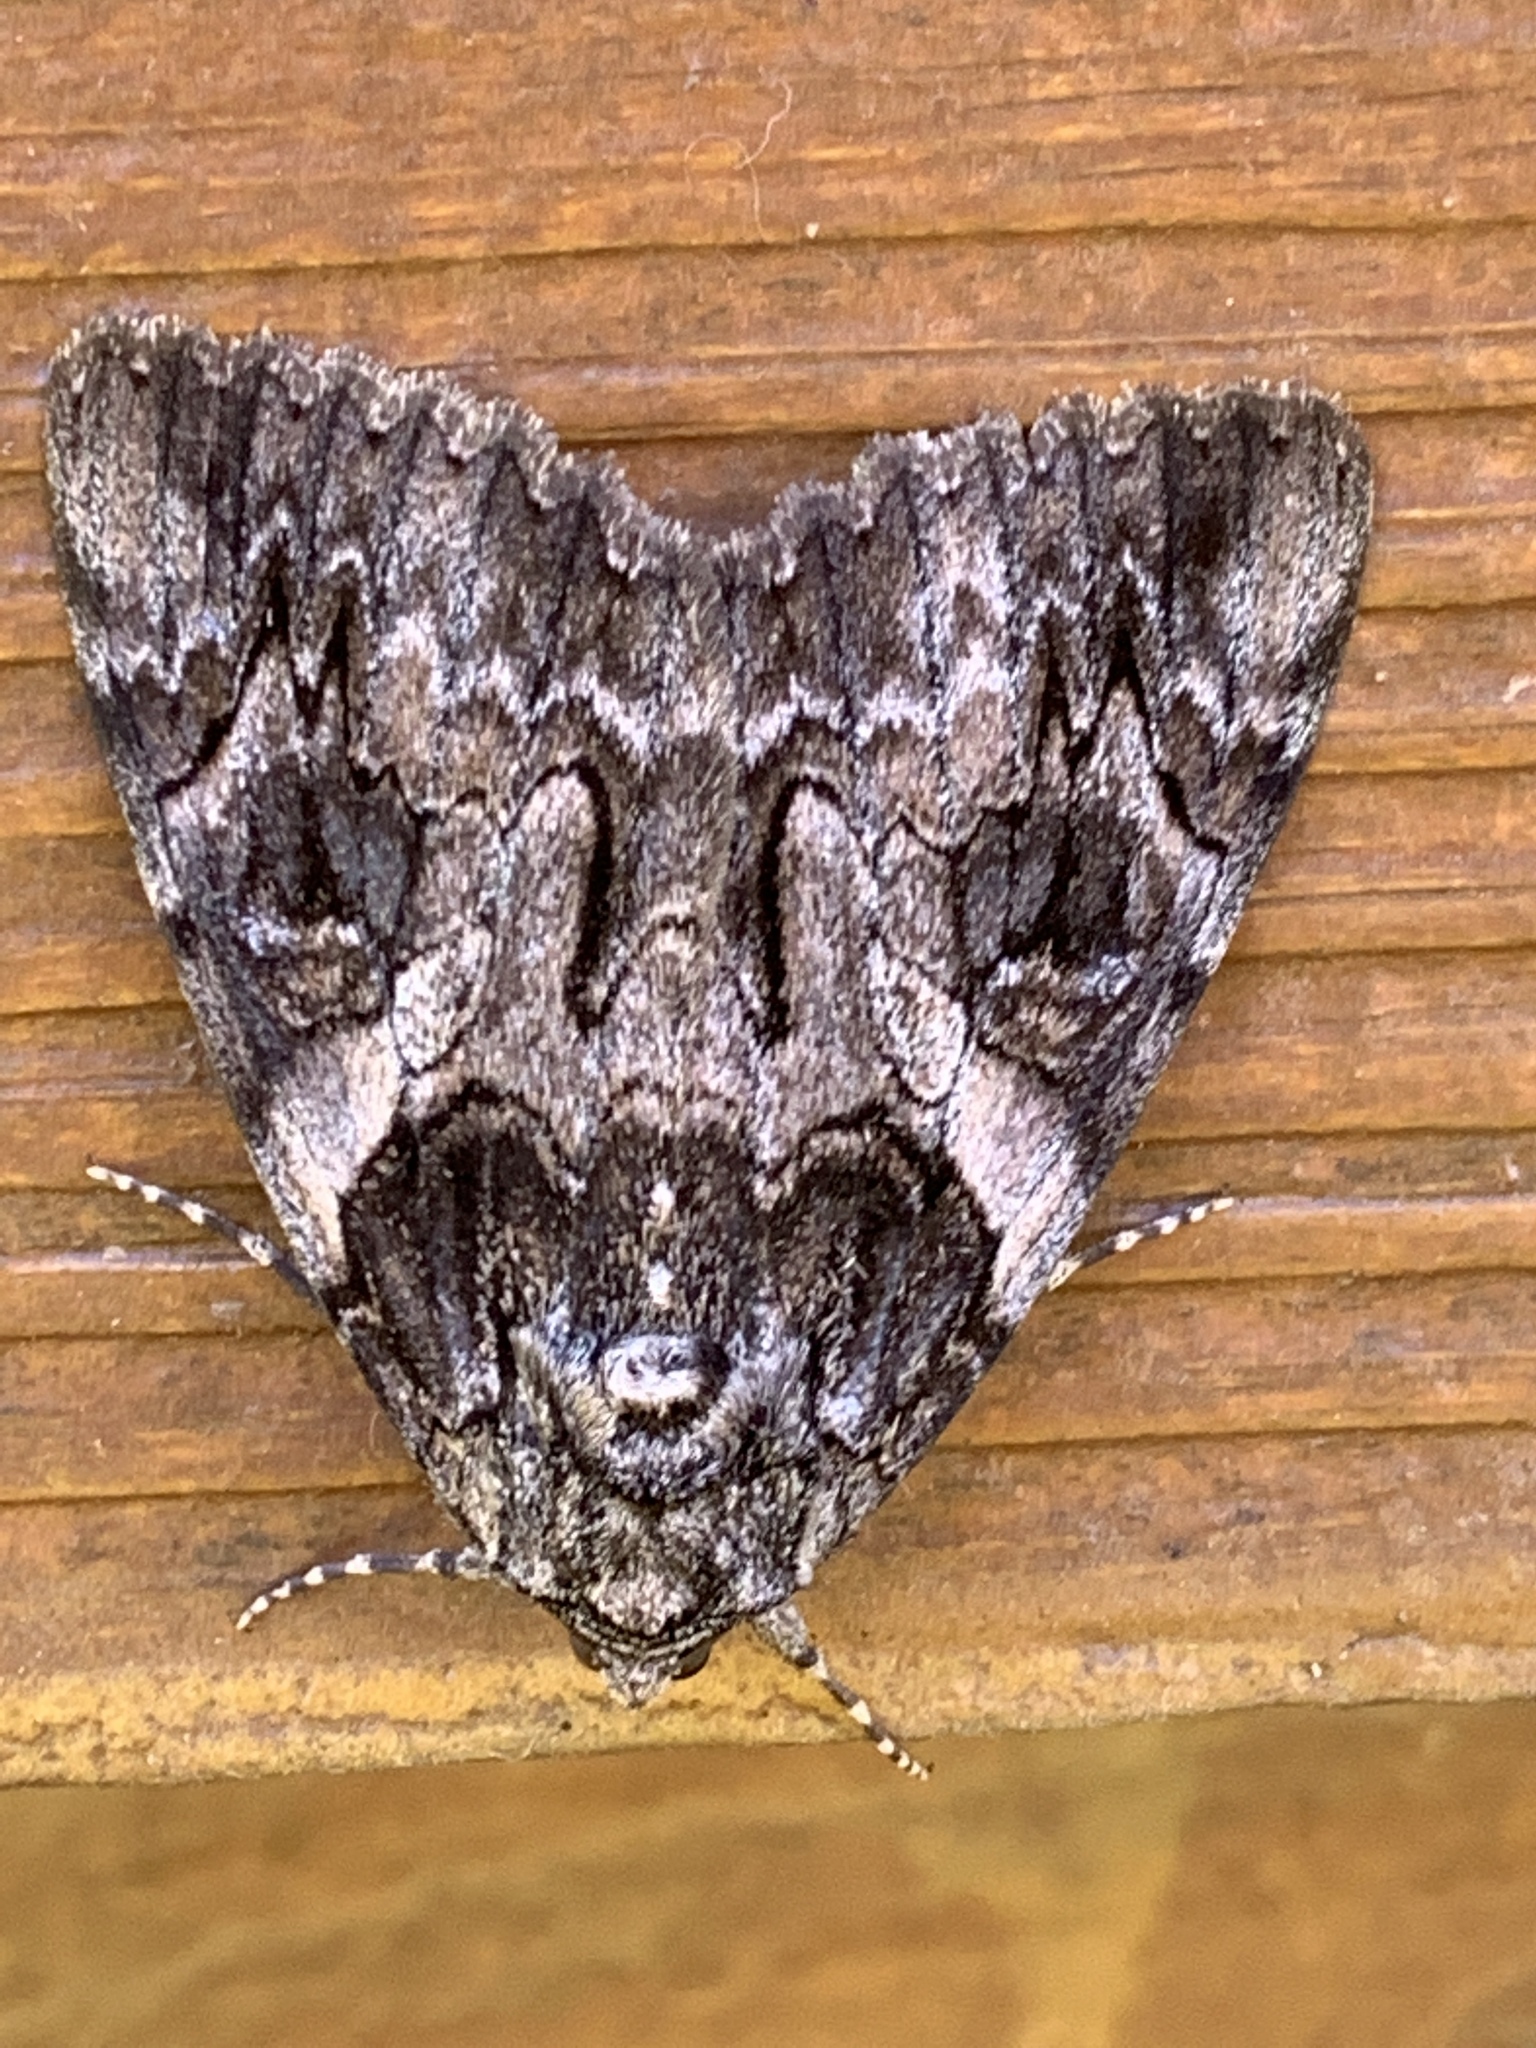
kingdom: Animalia
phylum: Arthropoda
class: Insecta
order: Lepidoptera
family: Erebidae
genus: Catocala
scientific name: Catocala piatrix
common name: The penitent underwing
